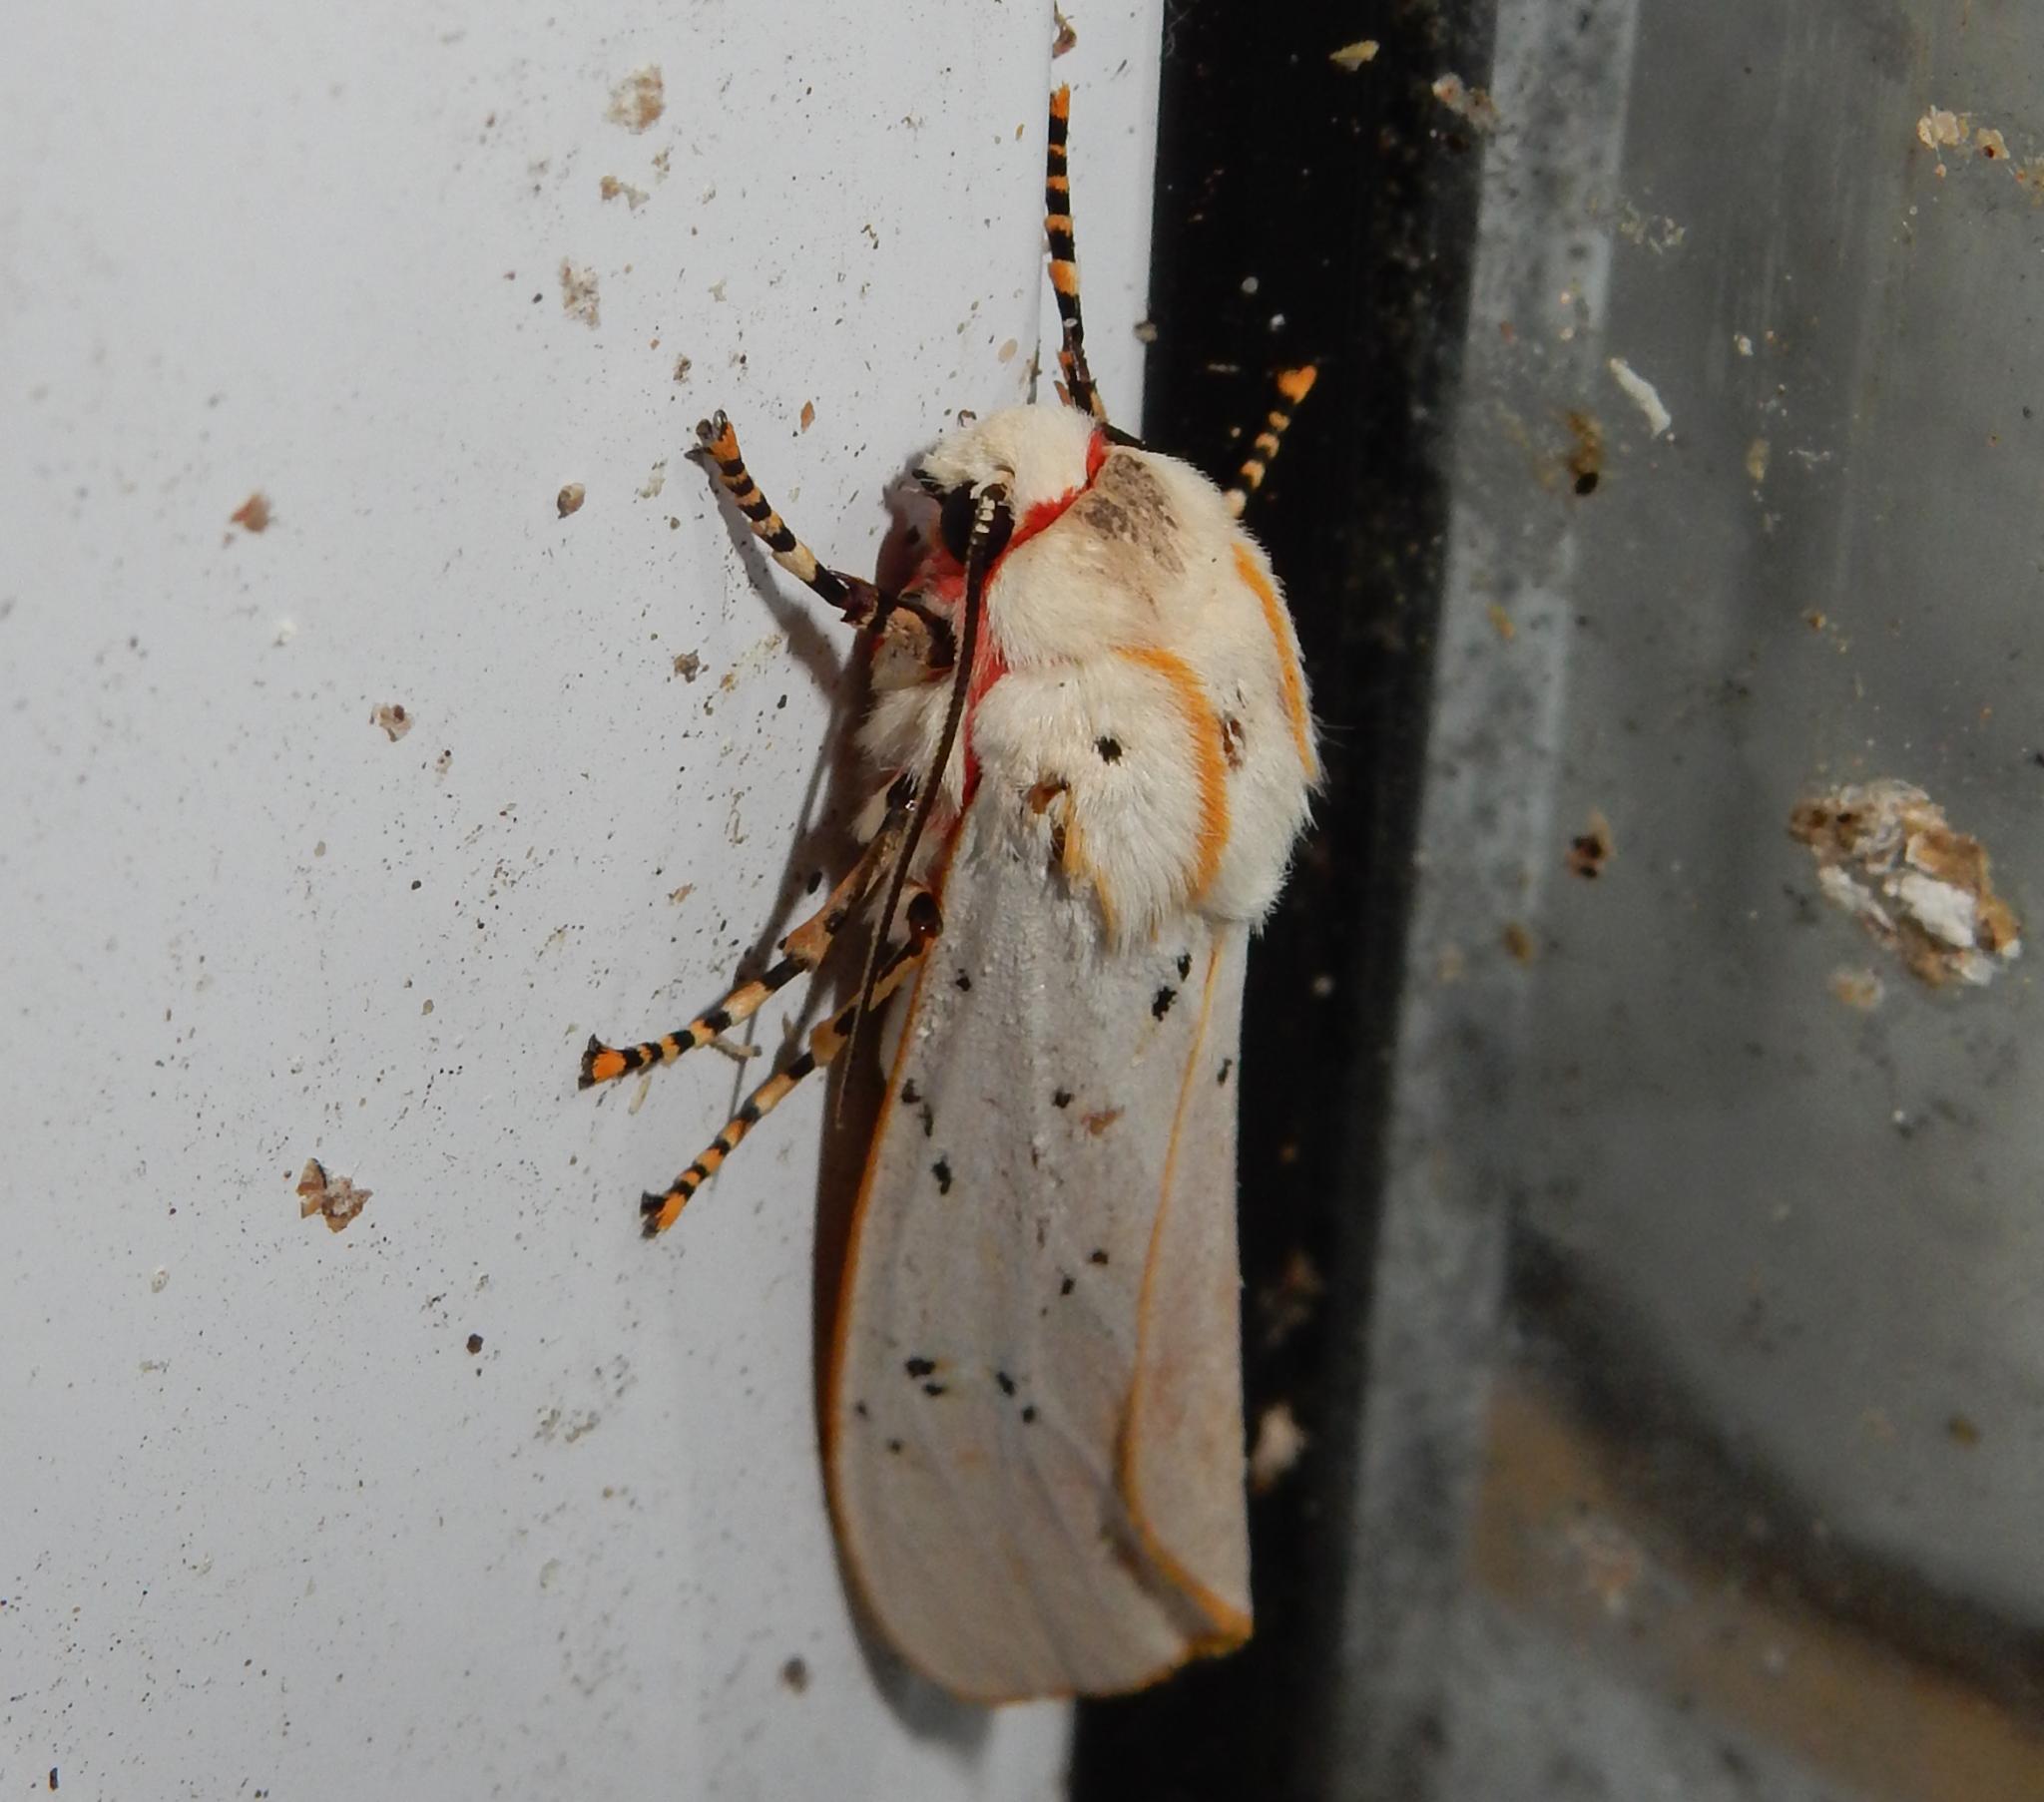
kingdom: Animalia
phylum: Arthropoda
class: Insecta
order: Lepidoptera
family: Erebidae
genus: Rhodogastria
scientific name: Rhodogastria similis
